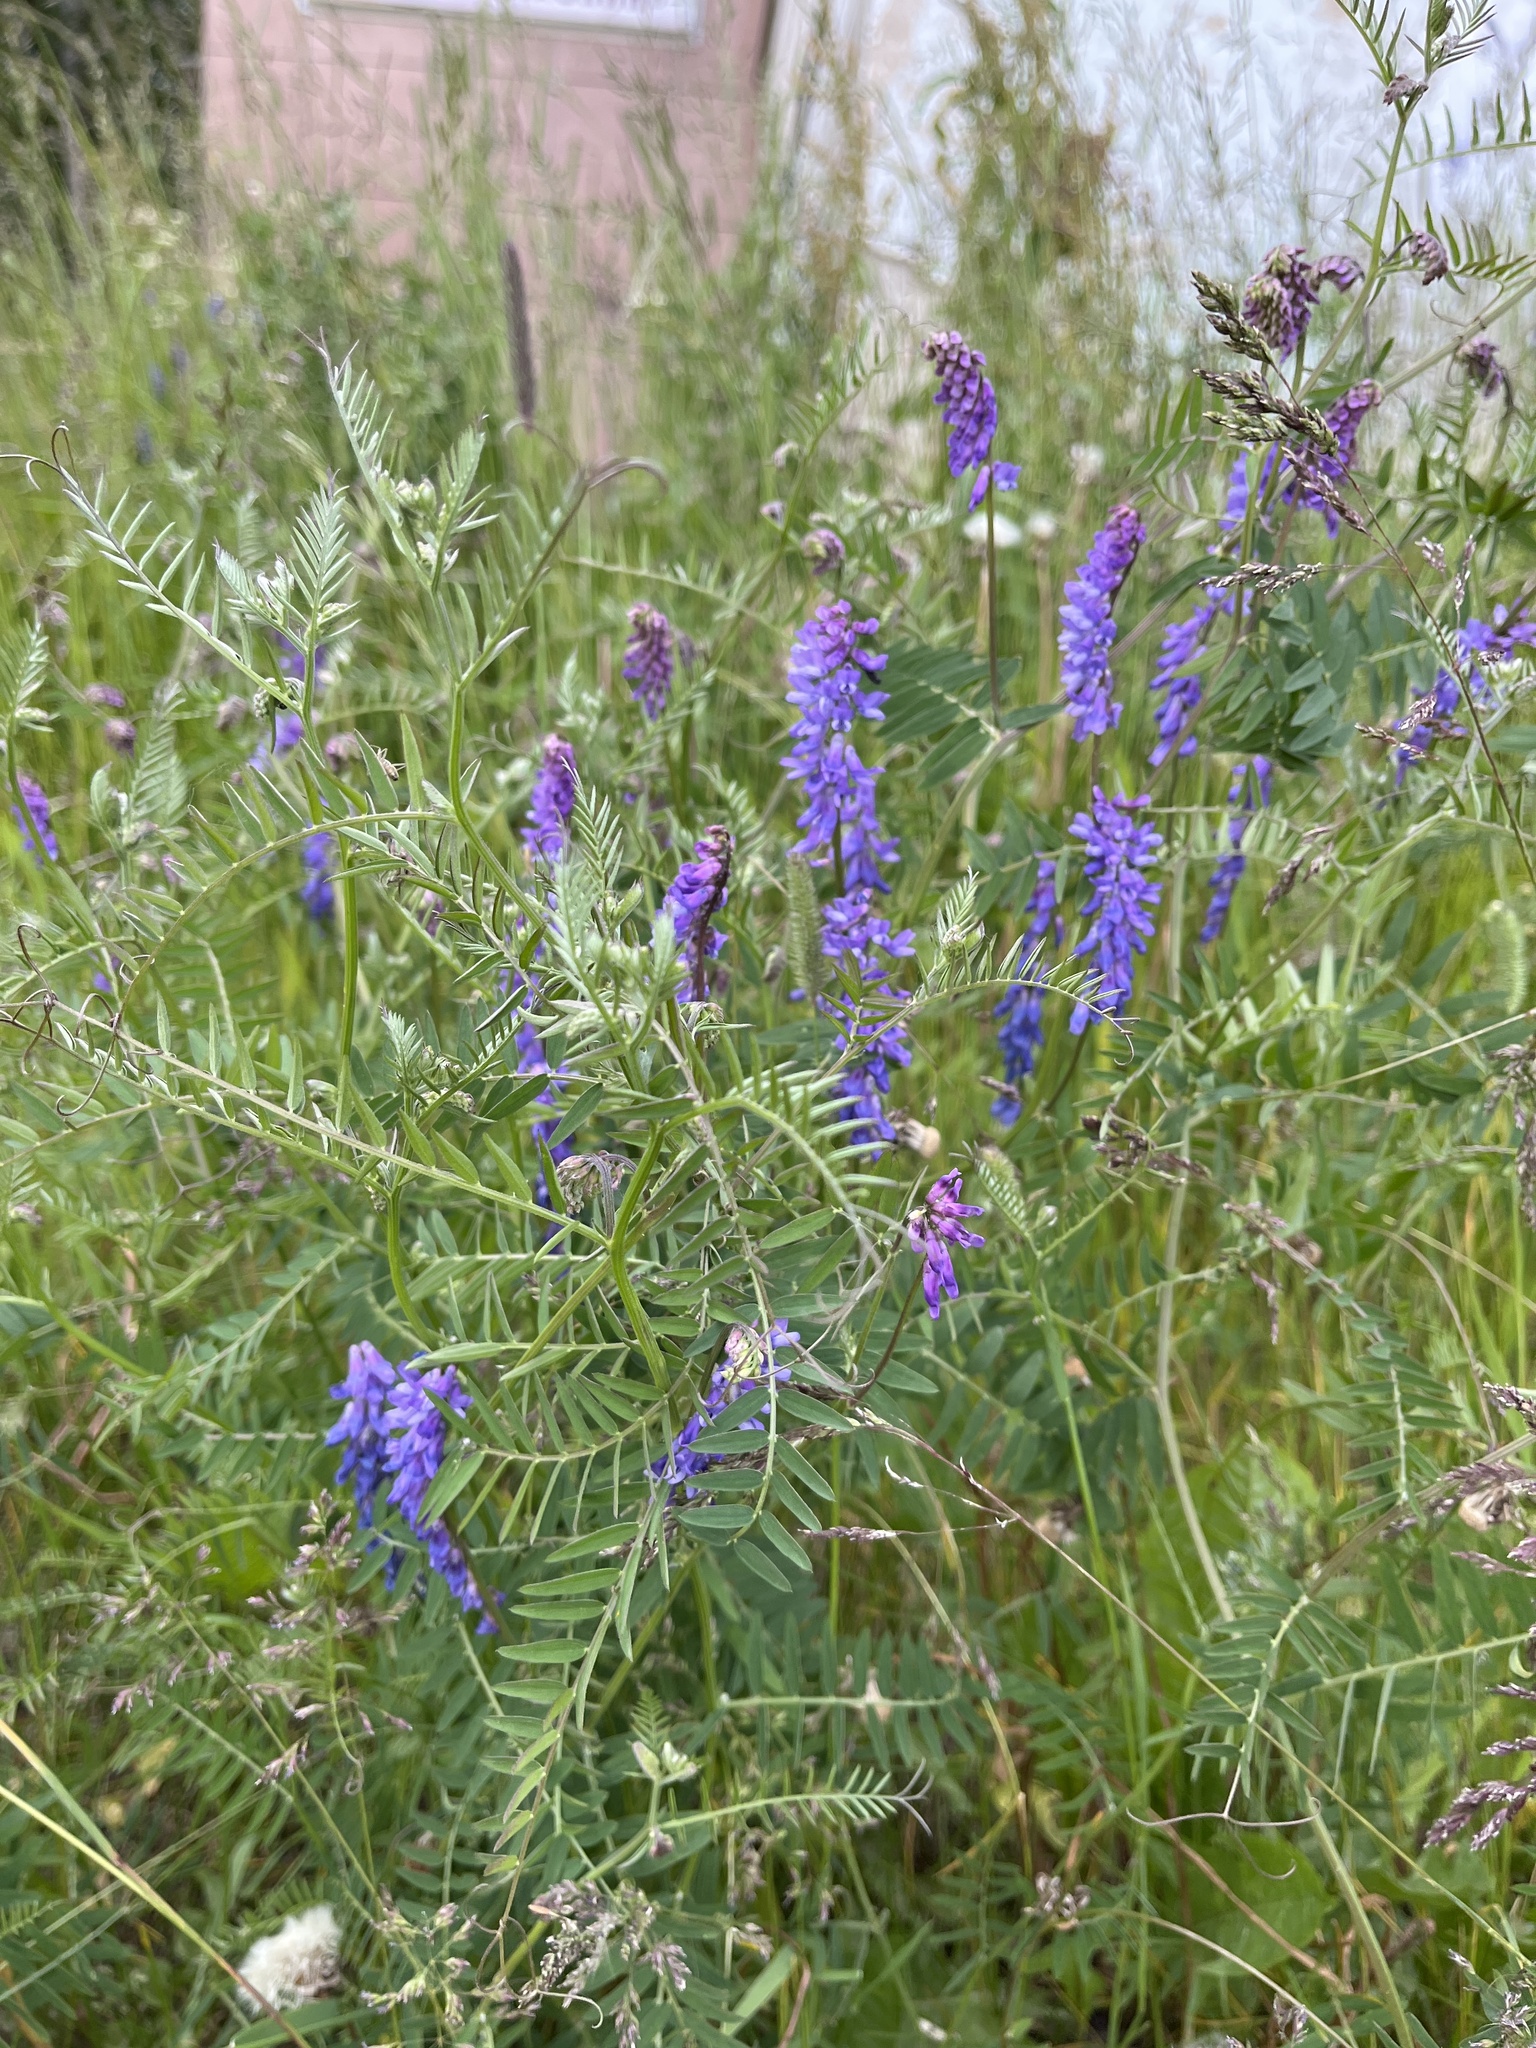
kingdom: Plantae
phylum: Tracheophyta
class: Magnoliopsida
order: Fabales
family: Fabaceae
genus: Vicia
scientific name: Vicia cracca
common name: Bird vetch
